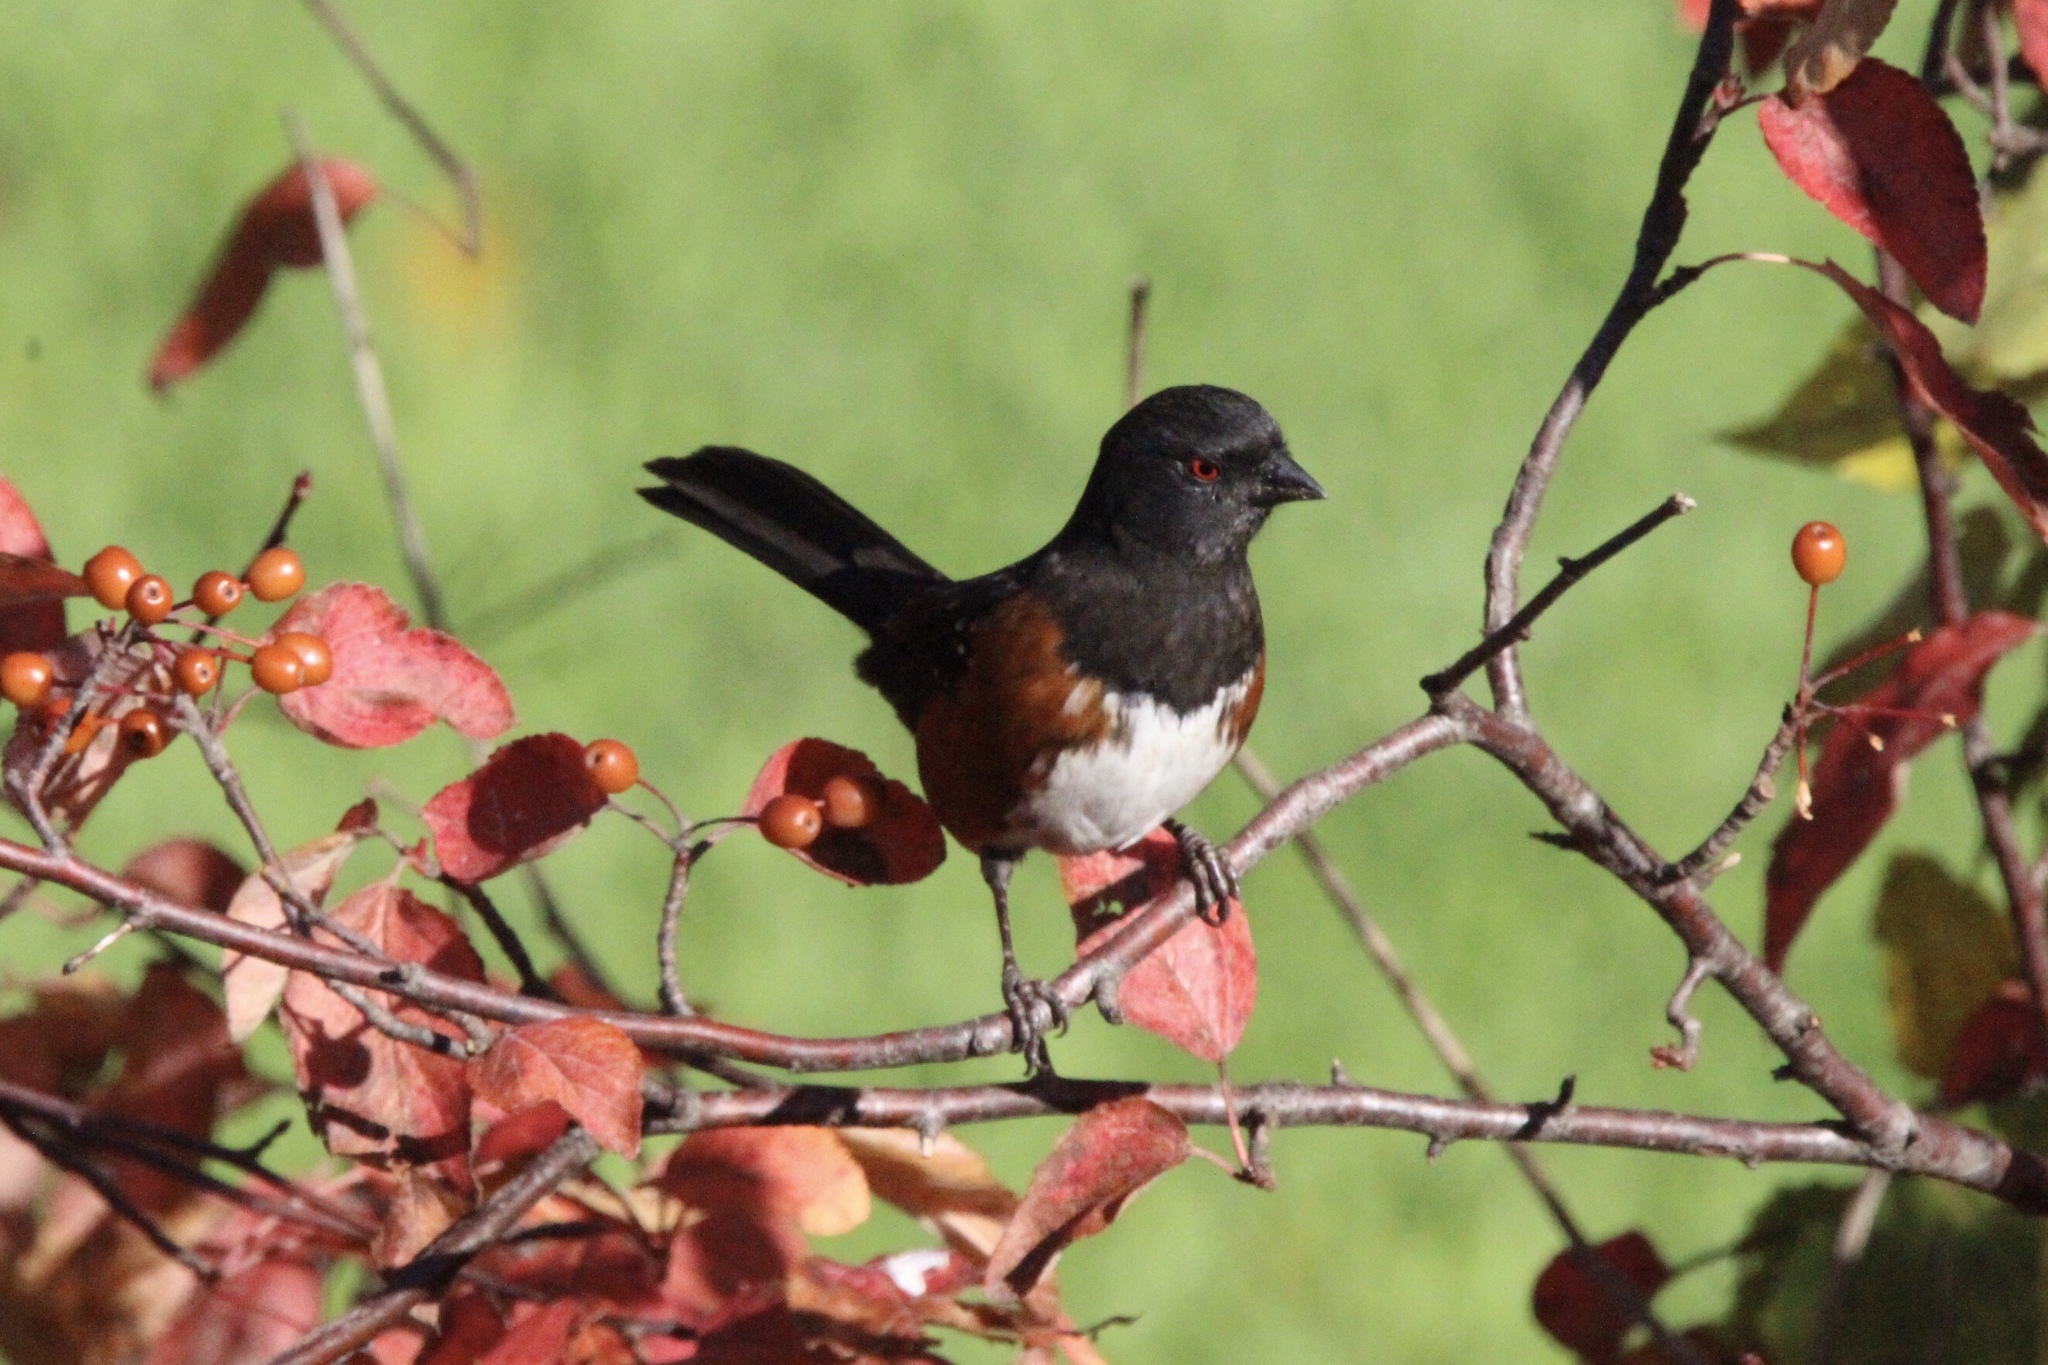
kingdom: Animalia
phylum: Chordata
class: Aves
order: Passeriformes
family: Passerellidae
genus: Pipilo
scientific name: Pipilo maculatus
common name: Spotted towhee
